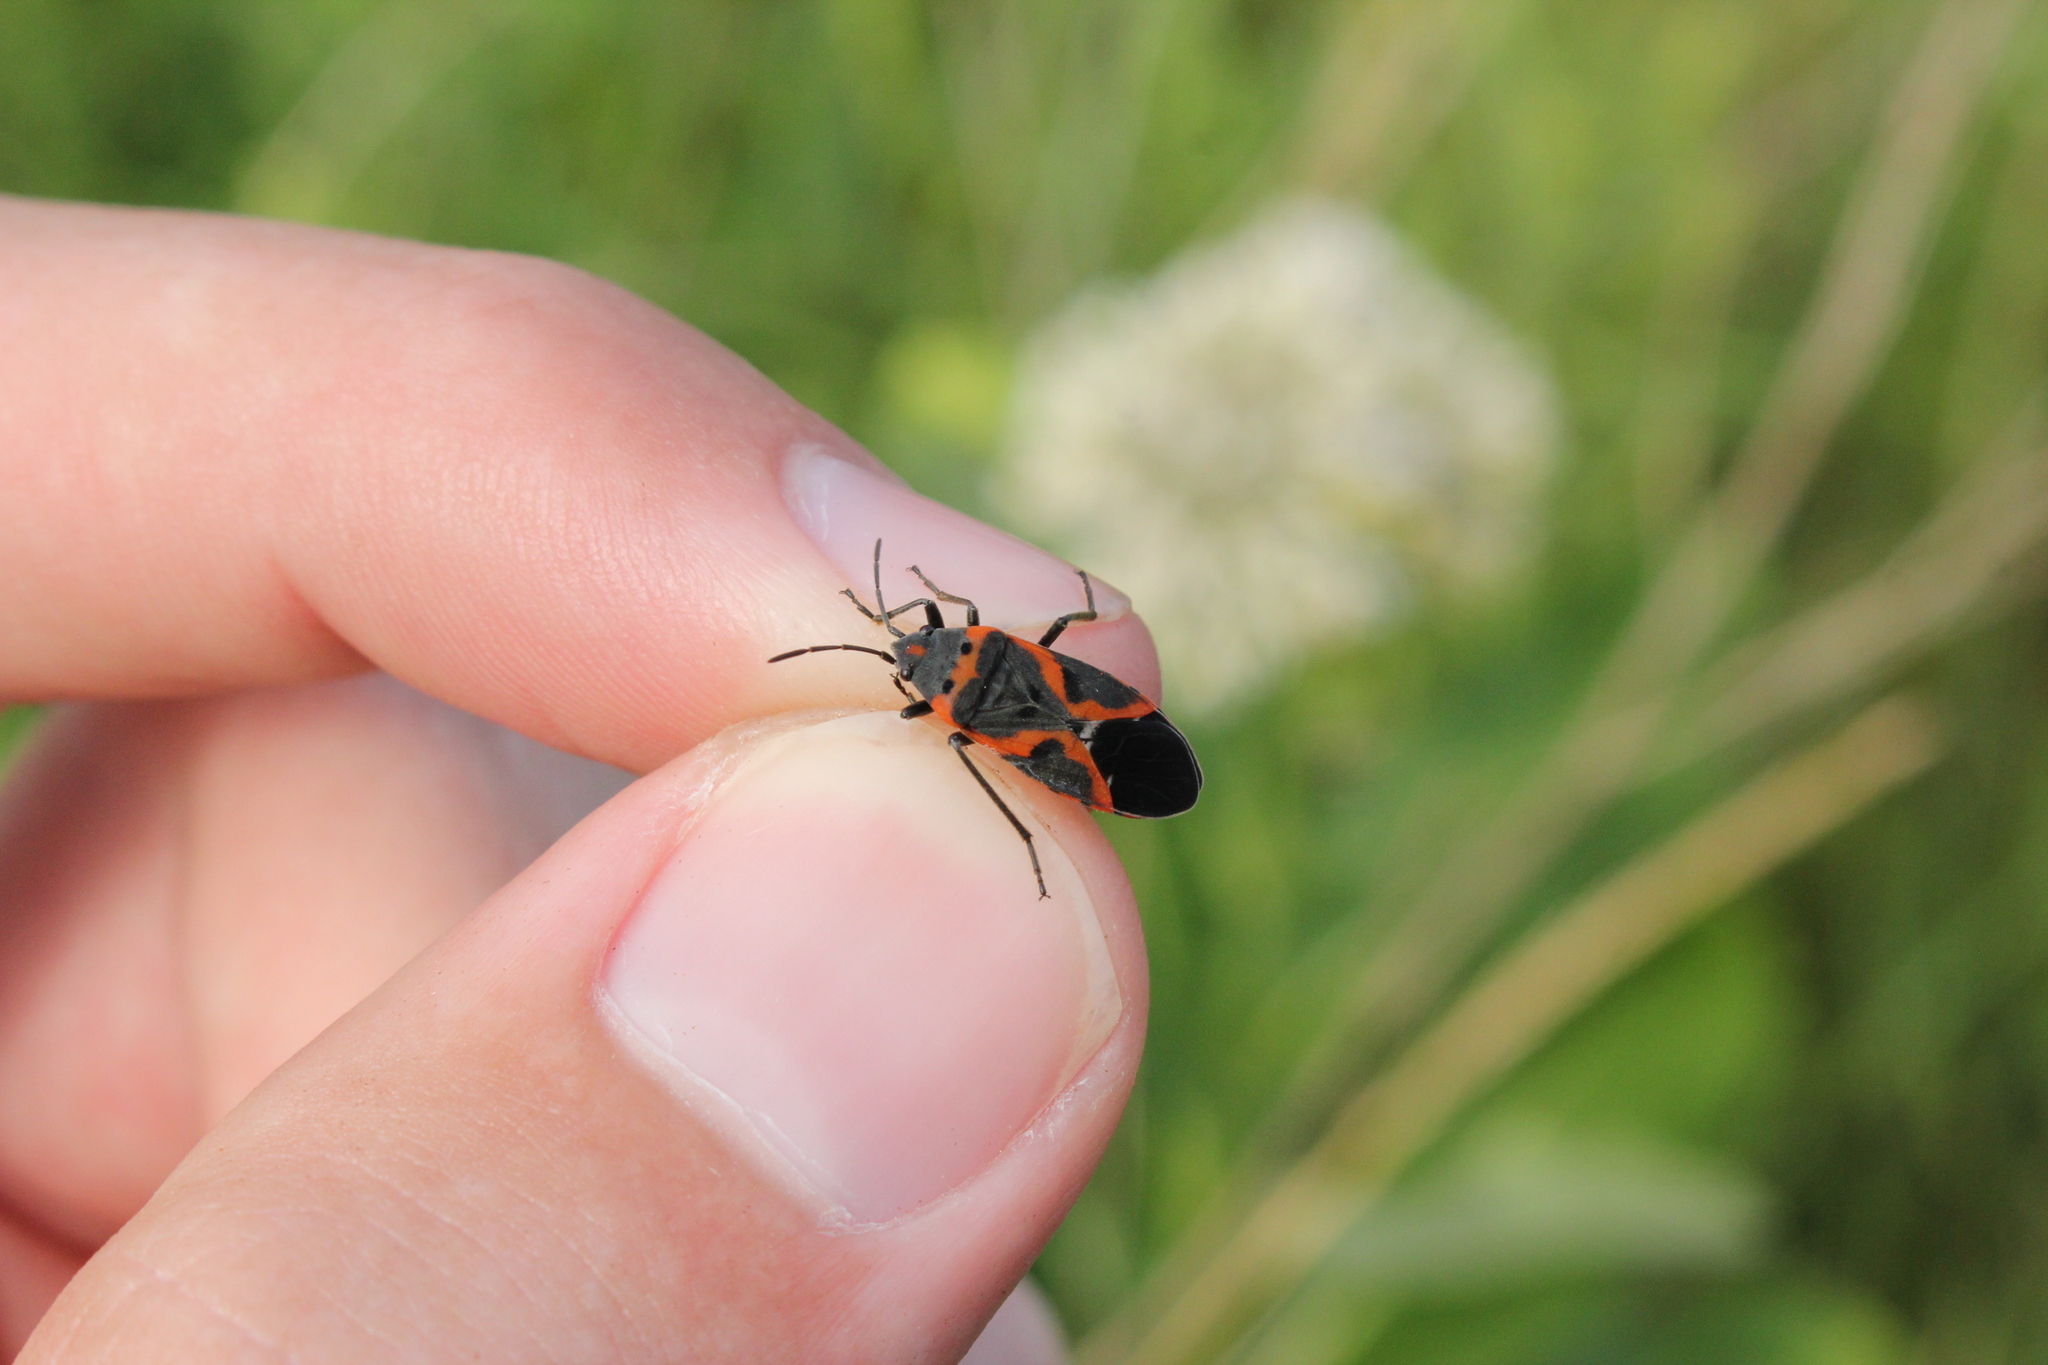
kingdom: Animalia
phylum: Arthropoda
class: Insecta
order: Hemiptera
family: Lygaeidae
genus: Lygaeus
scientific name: Lygaeus kalmii
